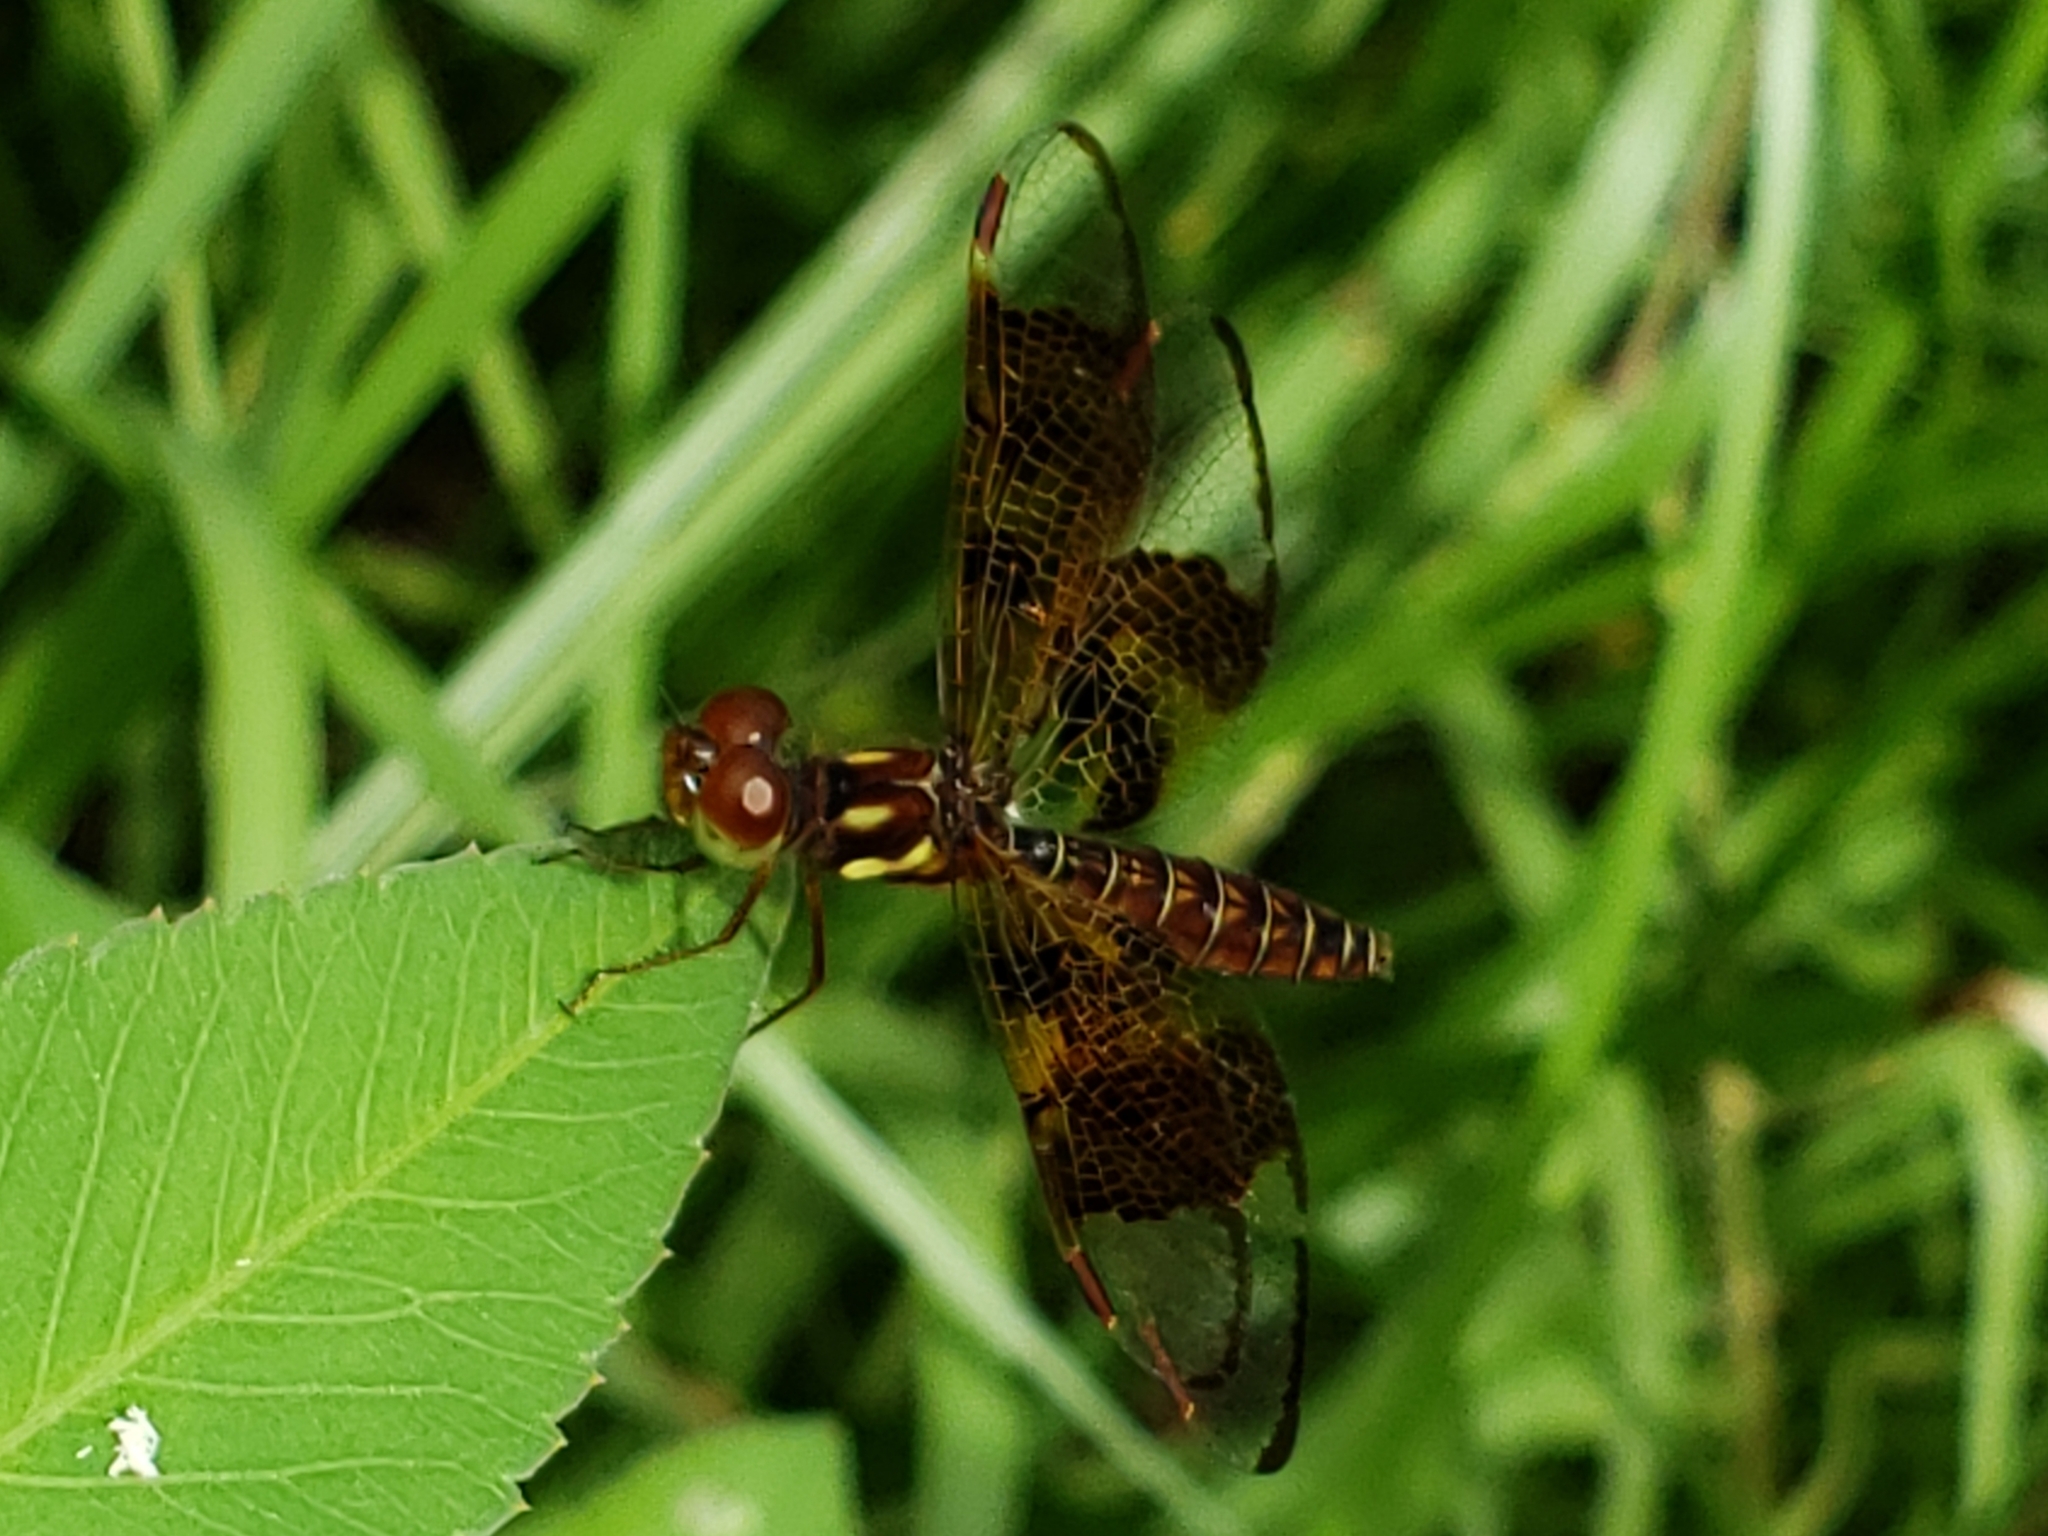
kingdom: Animalia
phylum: Arthropoda
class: Insecta
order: Odonata
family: Libellulidae
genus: Perithemis
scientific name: Perithemis tenera
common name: Eastern amberwing
